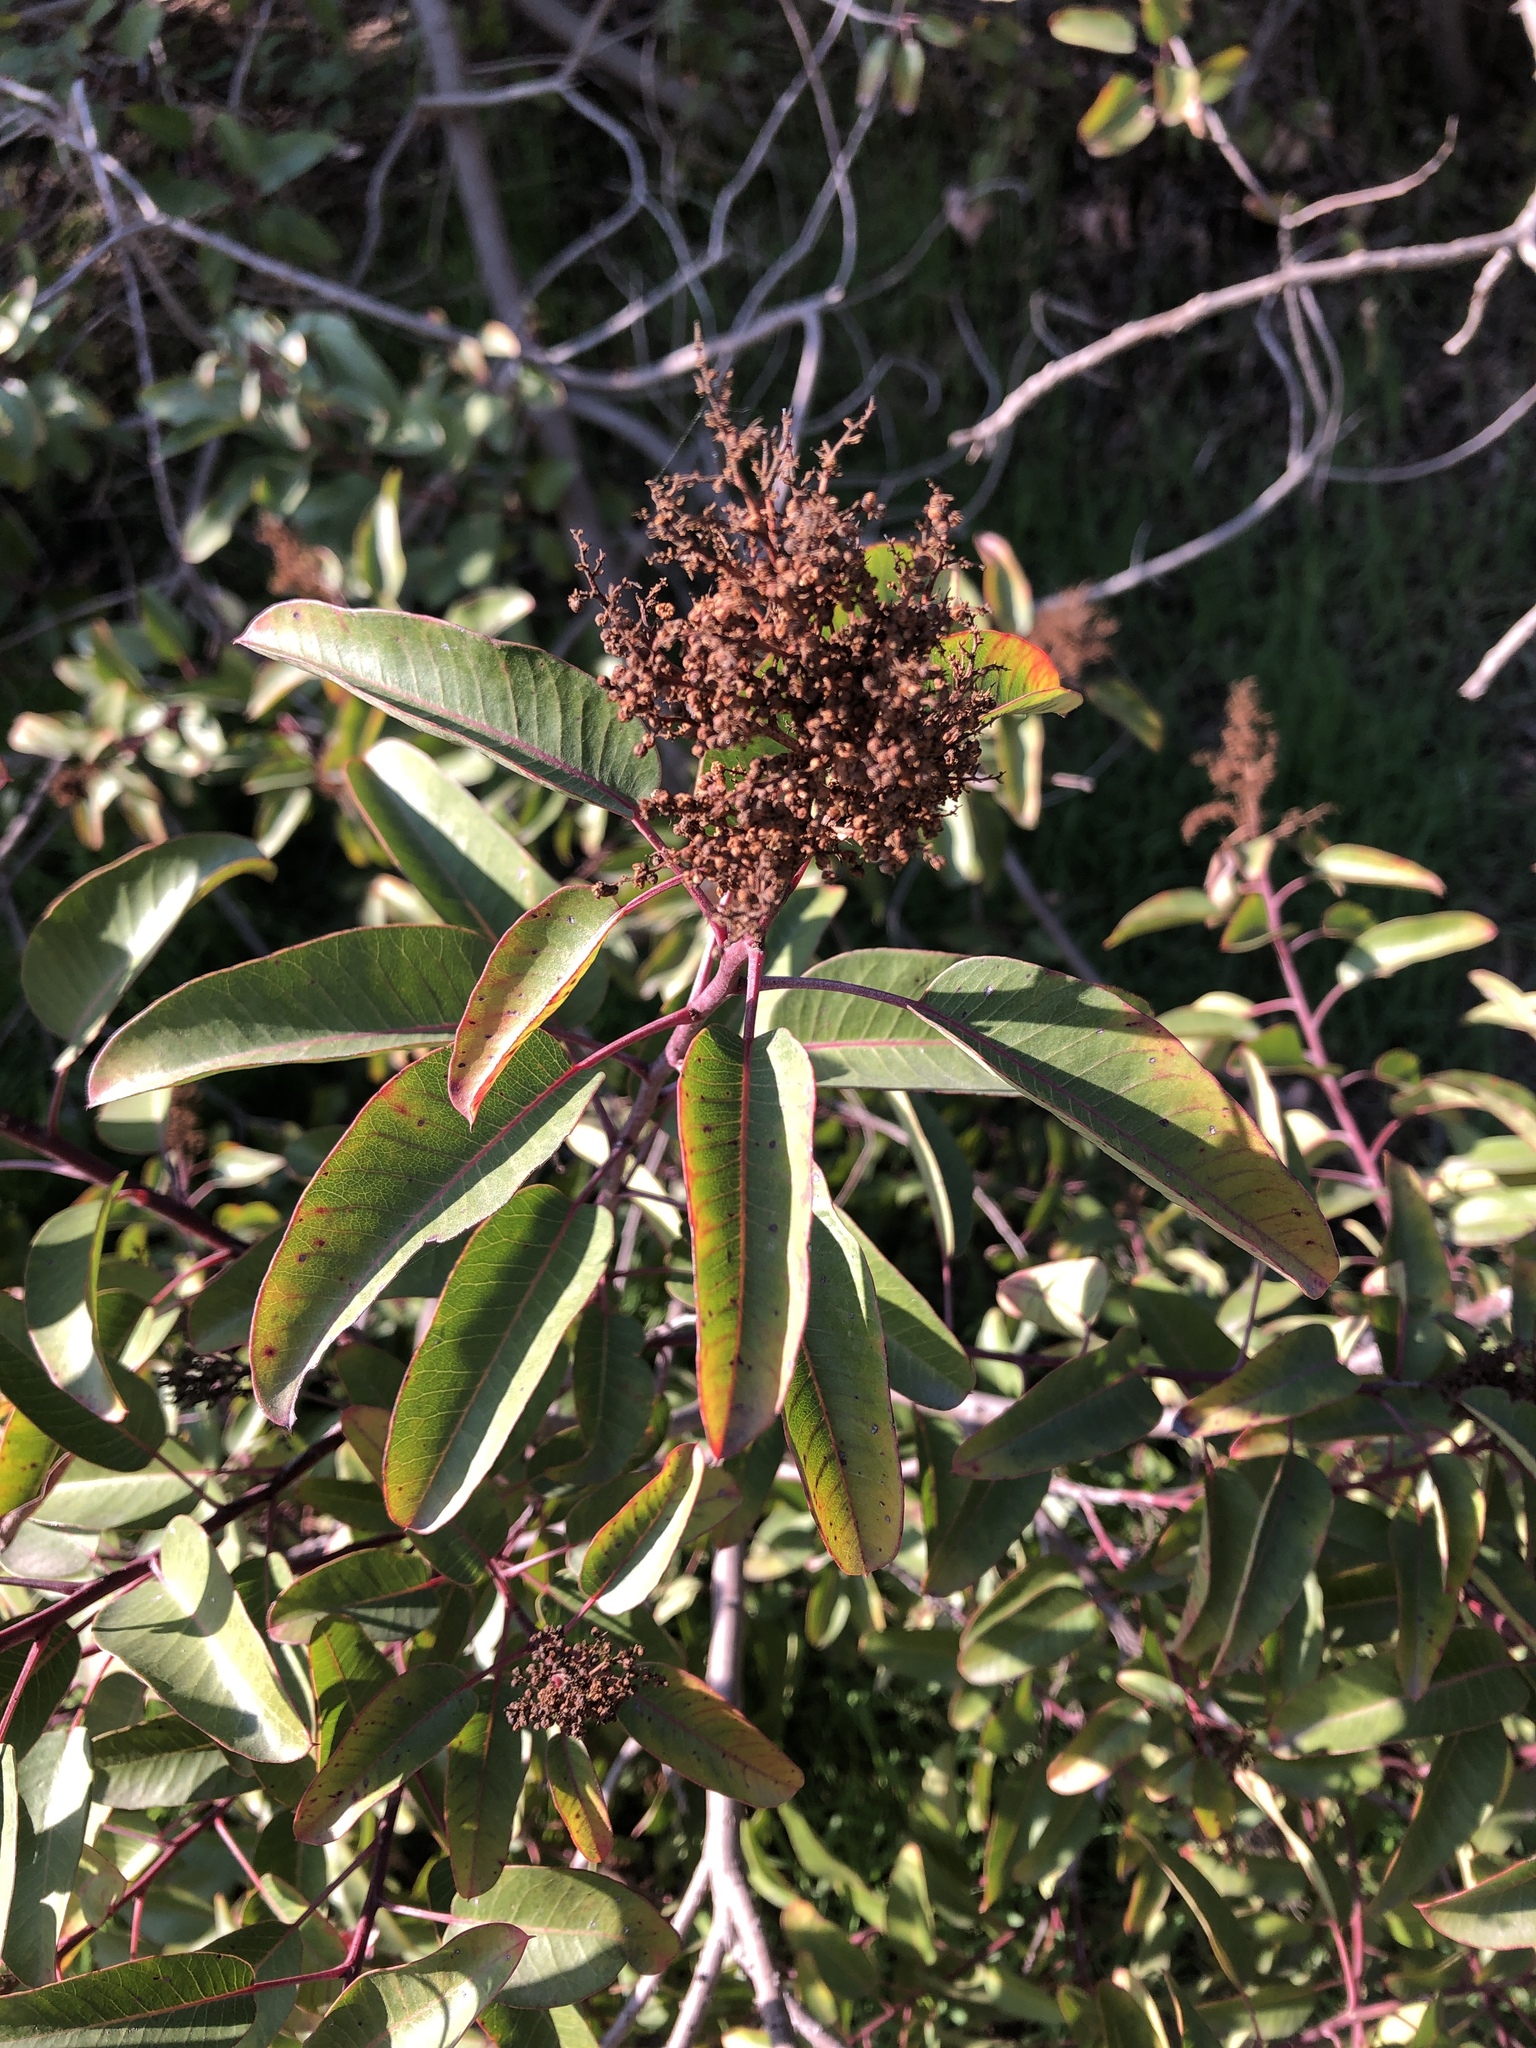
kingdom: Plantae
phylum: Tracheophyta
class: Magnoliopsida
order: Sapindales
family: Anacardiaceae
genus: Malosma
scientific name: Malosma laurina
